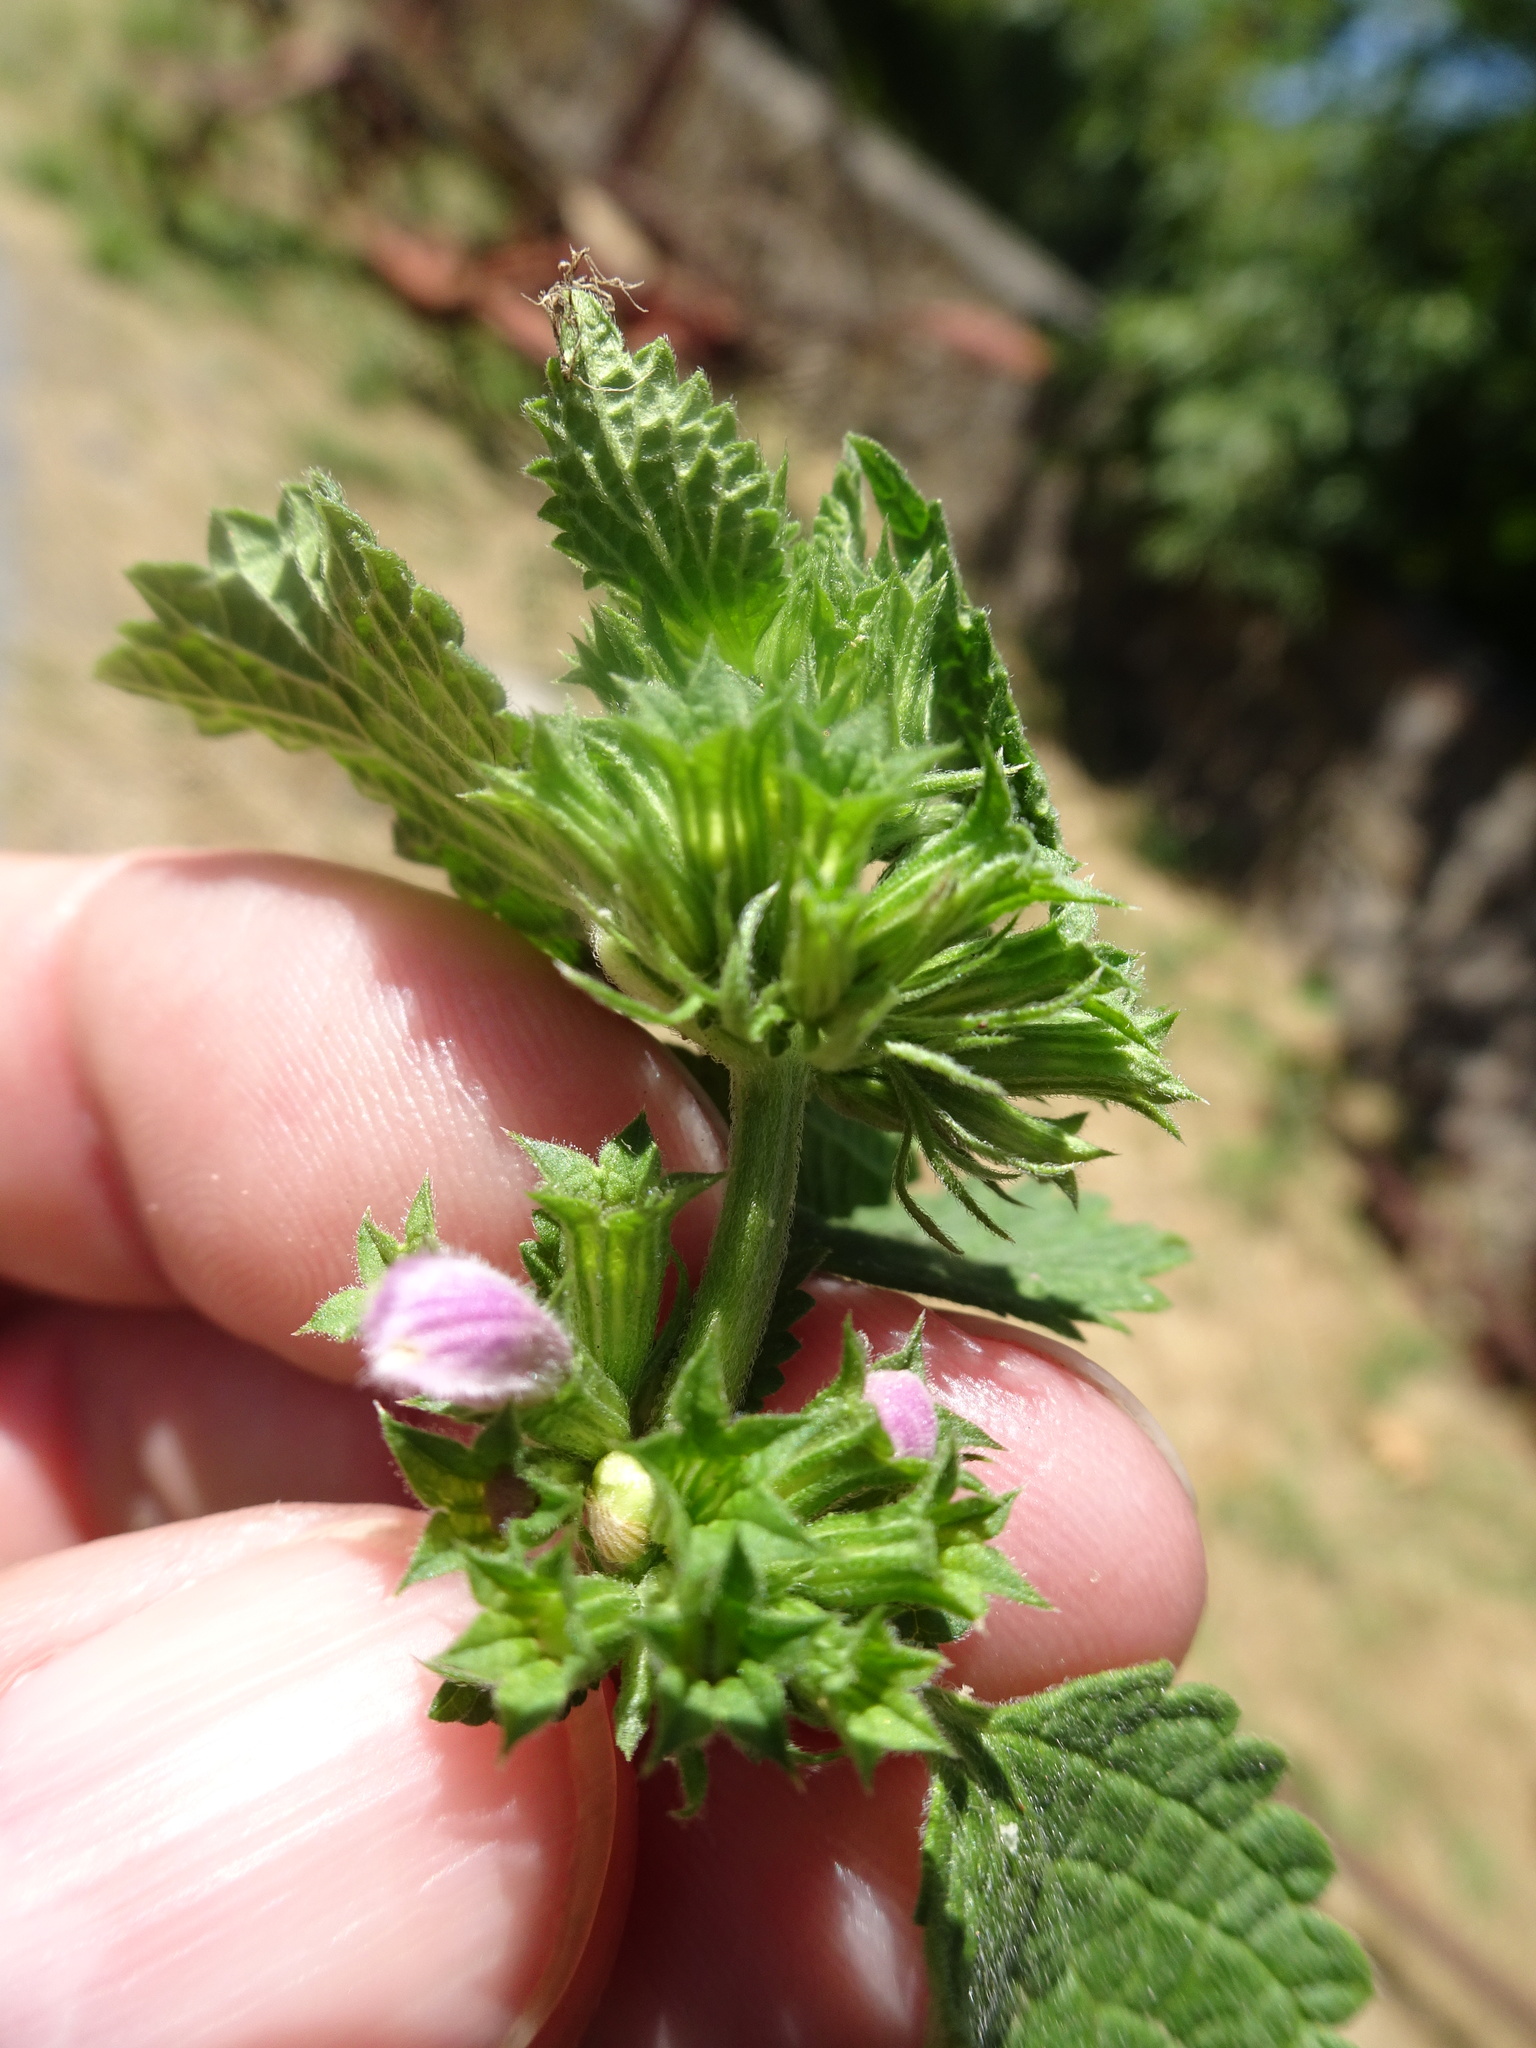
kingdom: Plantae
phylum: Tracheophyta
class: Magnoliopsida
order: Lamiales
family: Lamiaceae
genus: Ballota
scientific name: Ballota nigra
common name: Black horehound
